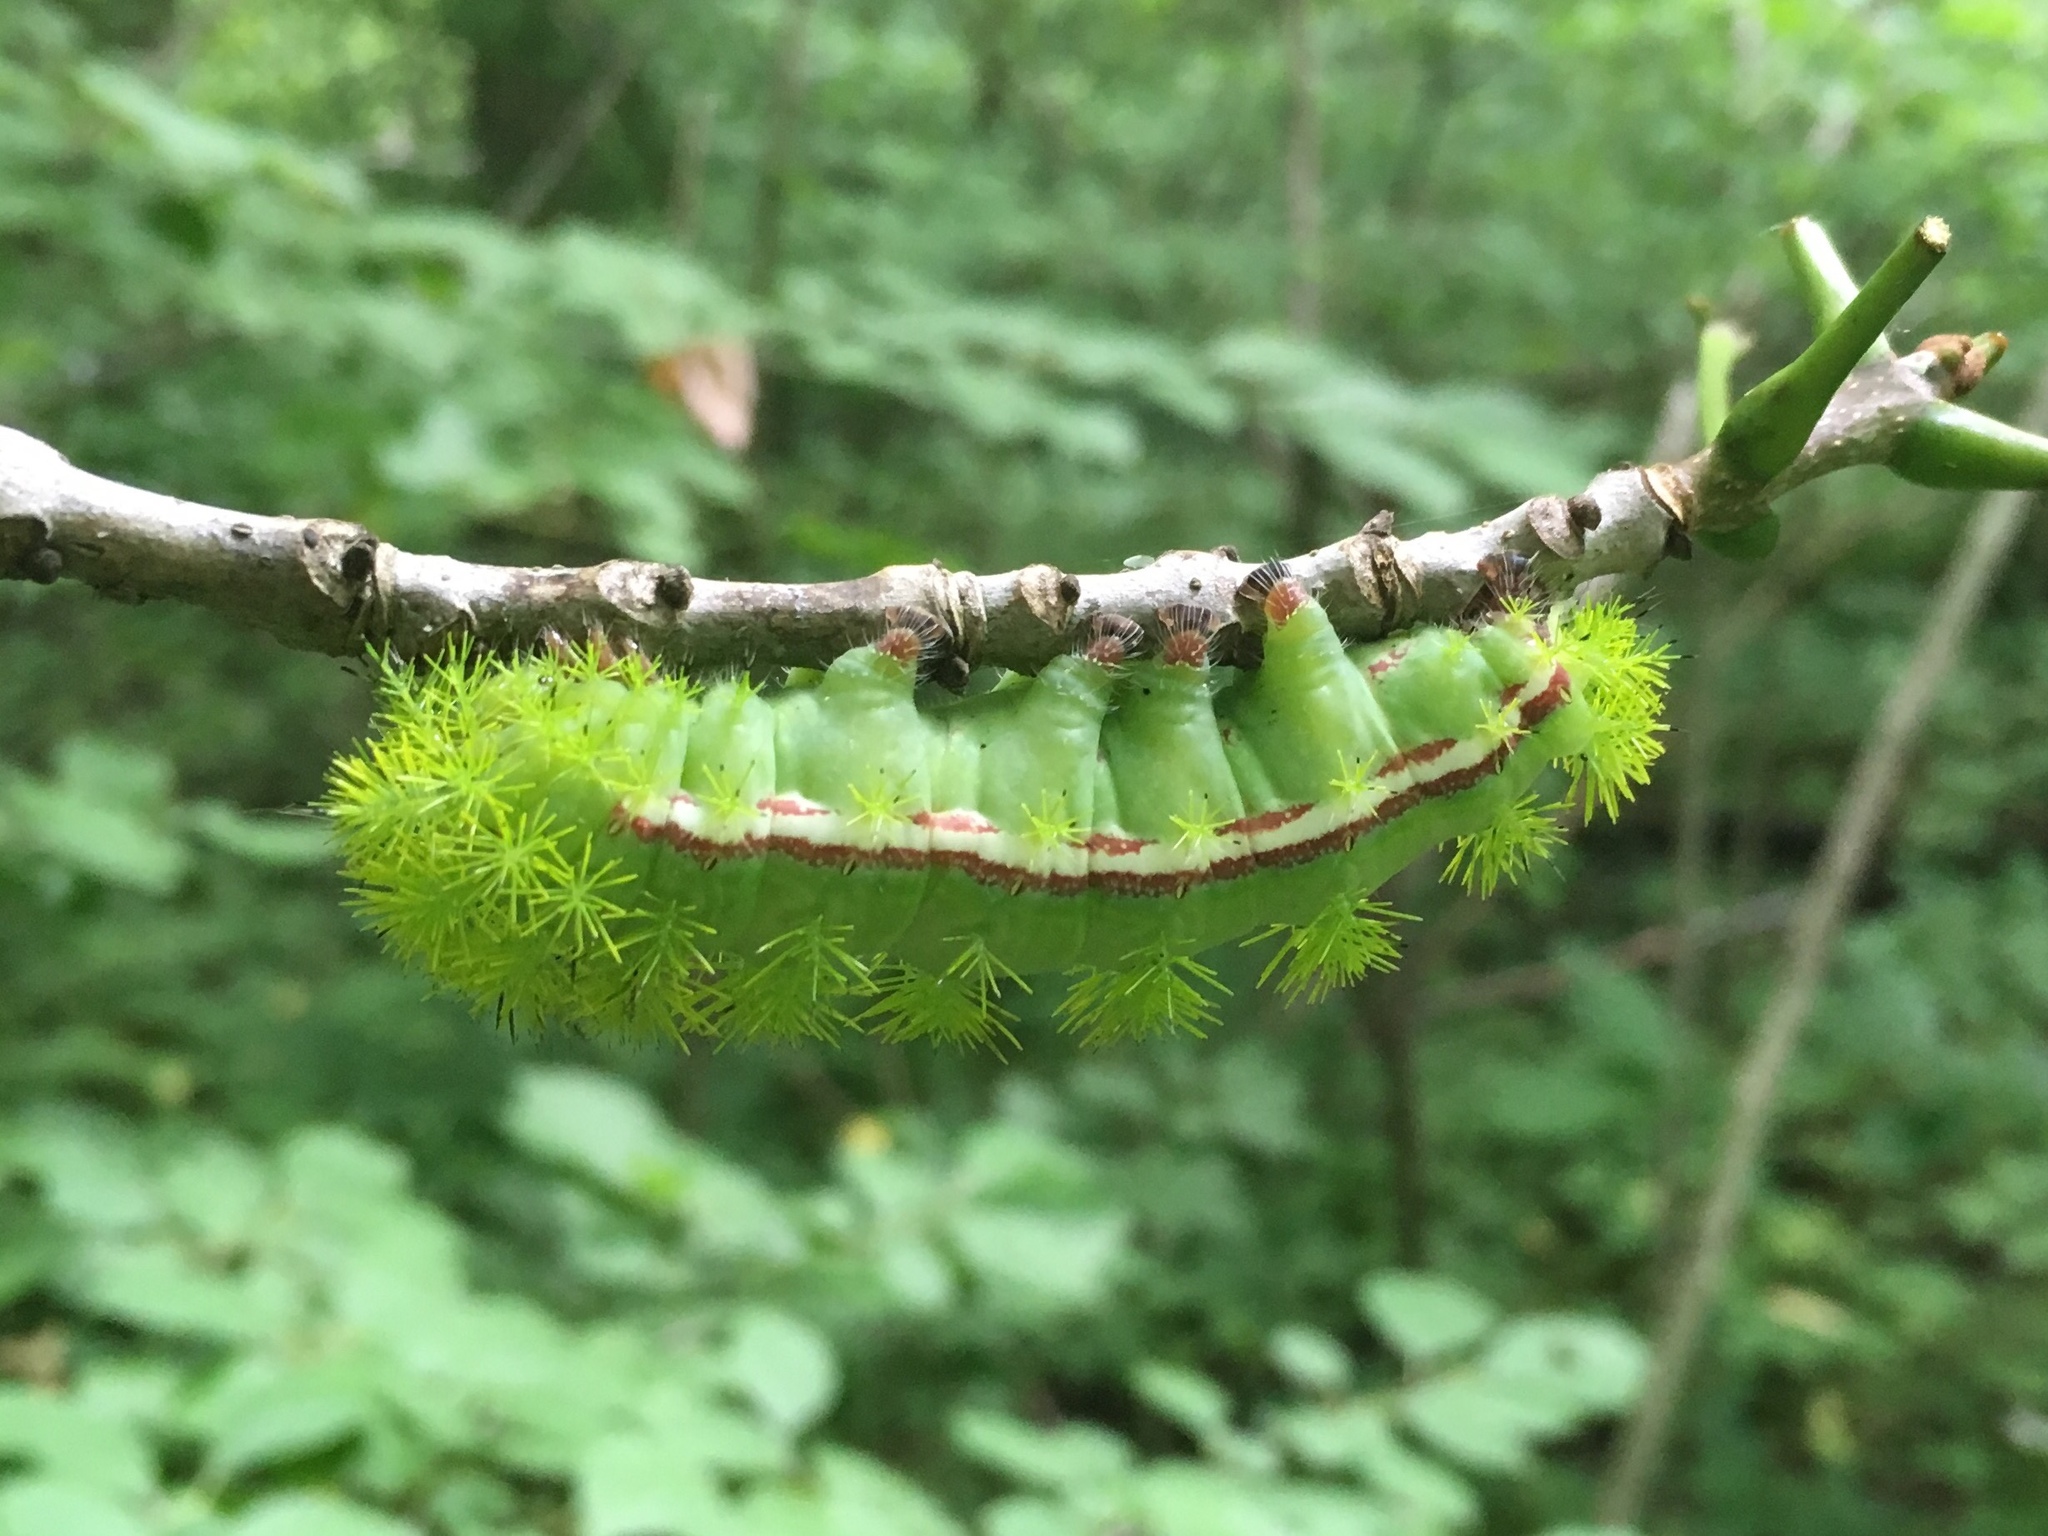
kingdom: Animalia
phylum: Arthropoda
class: Insecta
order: Lepidoptera
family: Saturniidae
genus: Automeris
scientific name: Automeris io
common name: Io moth
